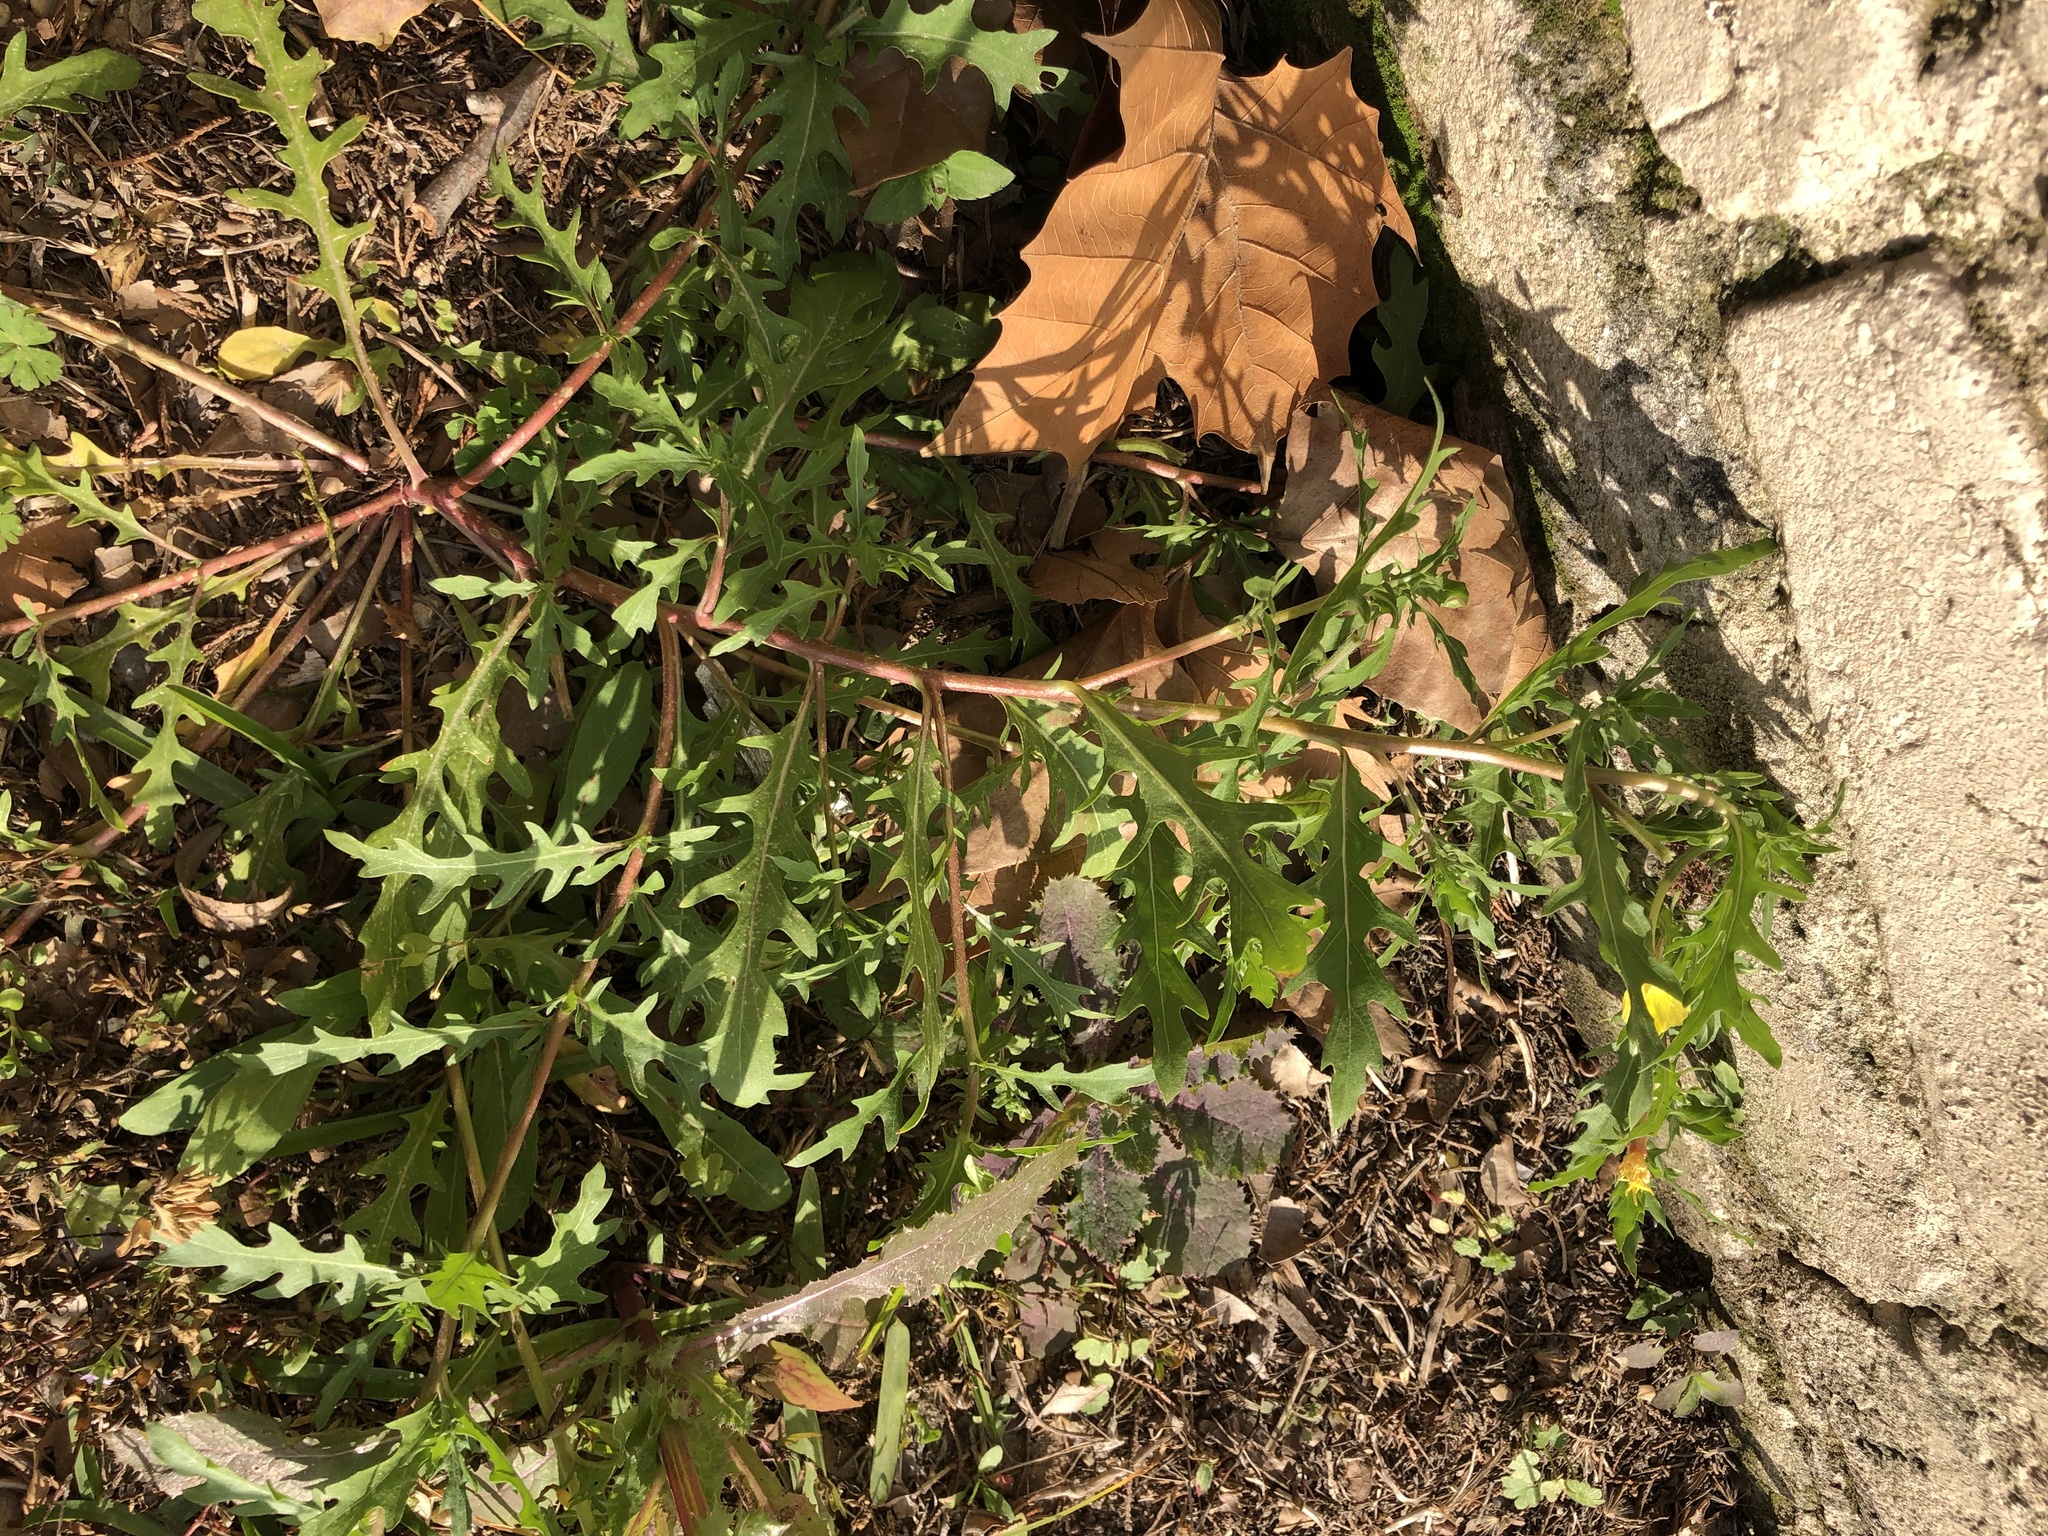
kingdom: Plantae
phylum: Tracheophyta
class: Magnoliopsida
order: Myrtales
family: Onagraceae
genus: Oenothera
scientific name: Oenothera laciniata
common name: Cut-leaved evening-primrose
